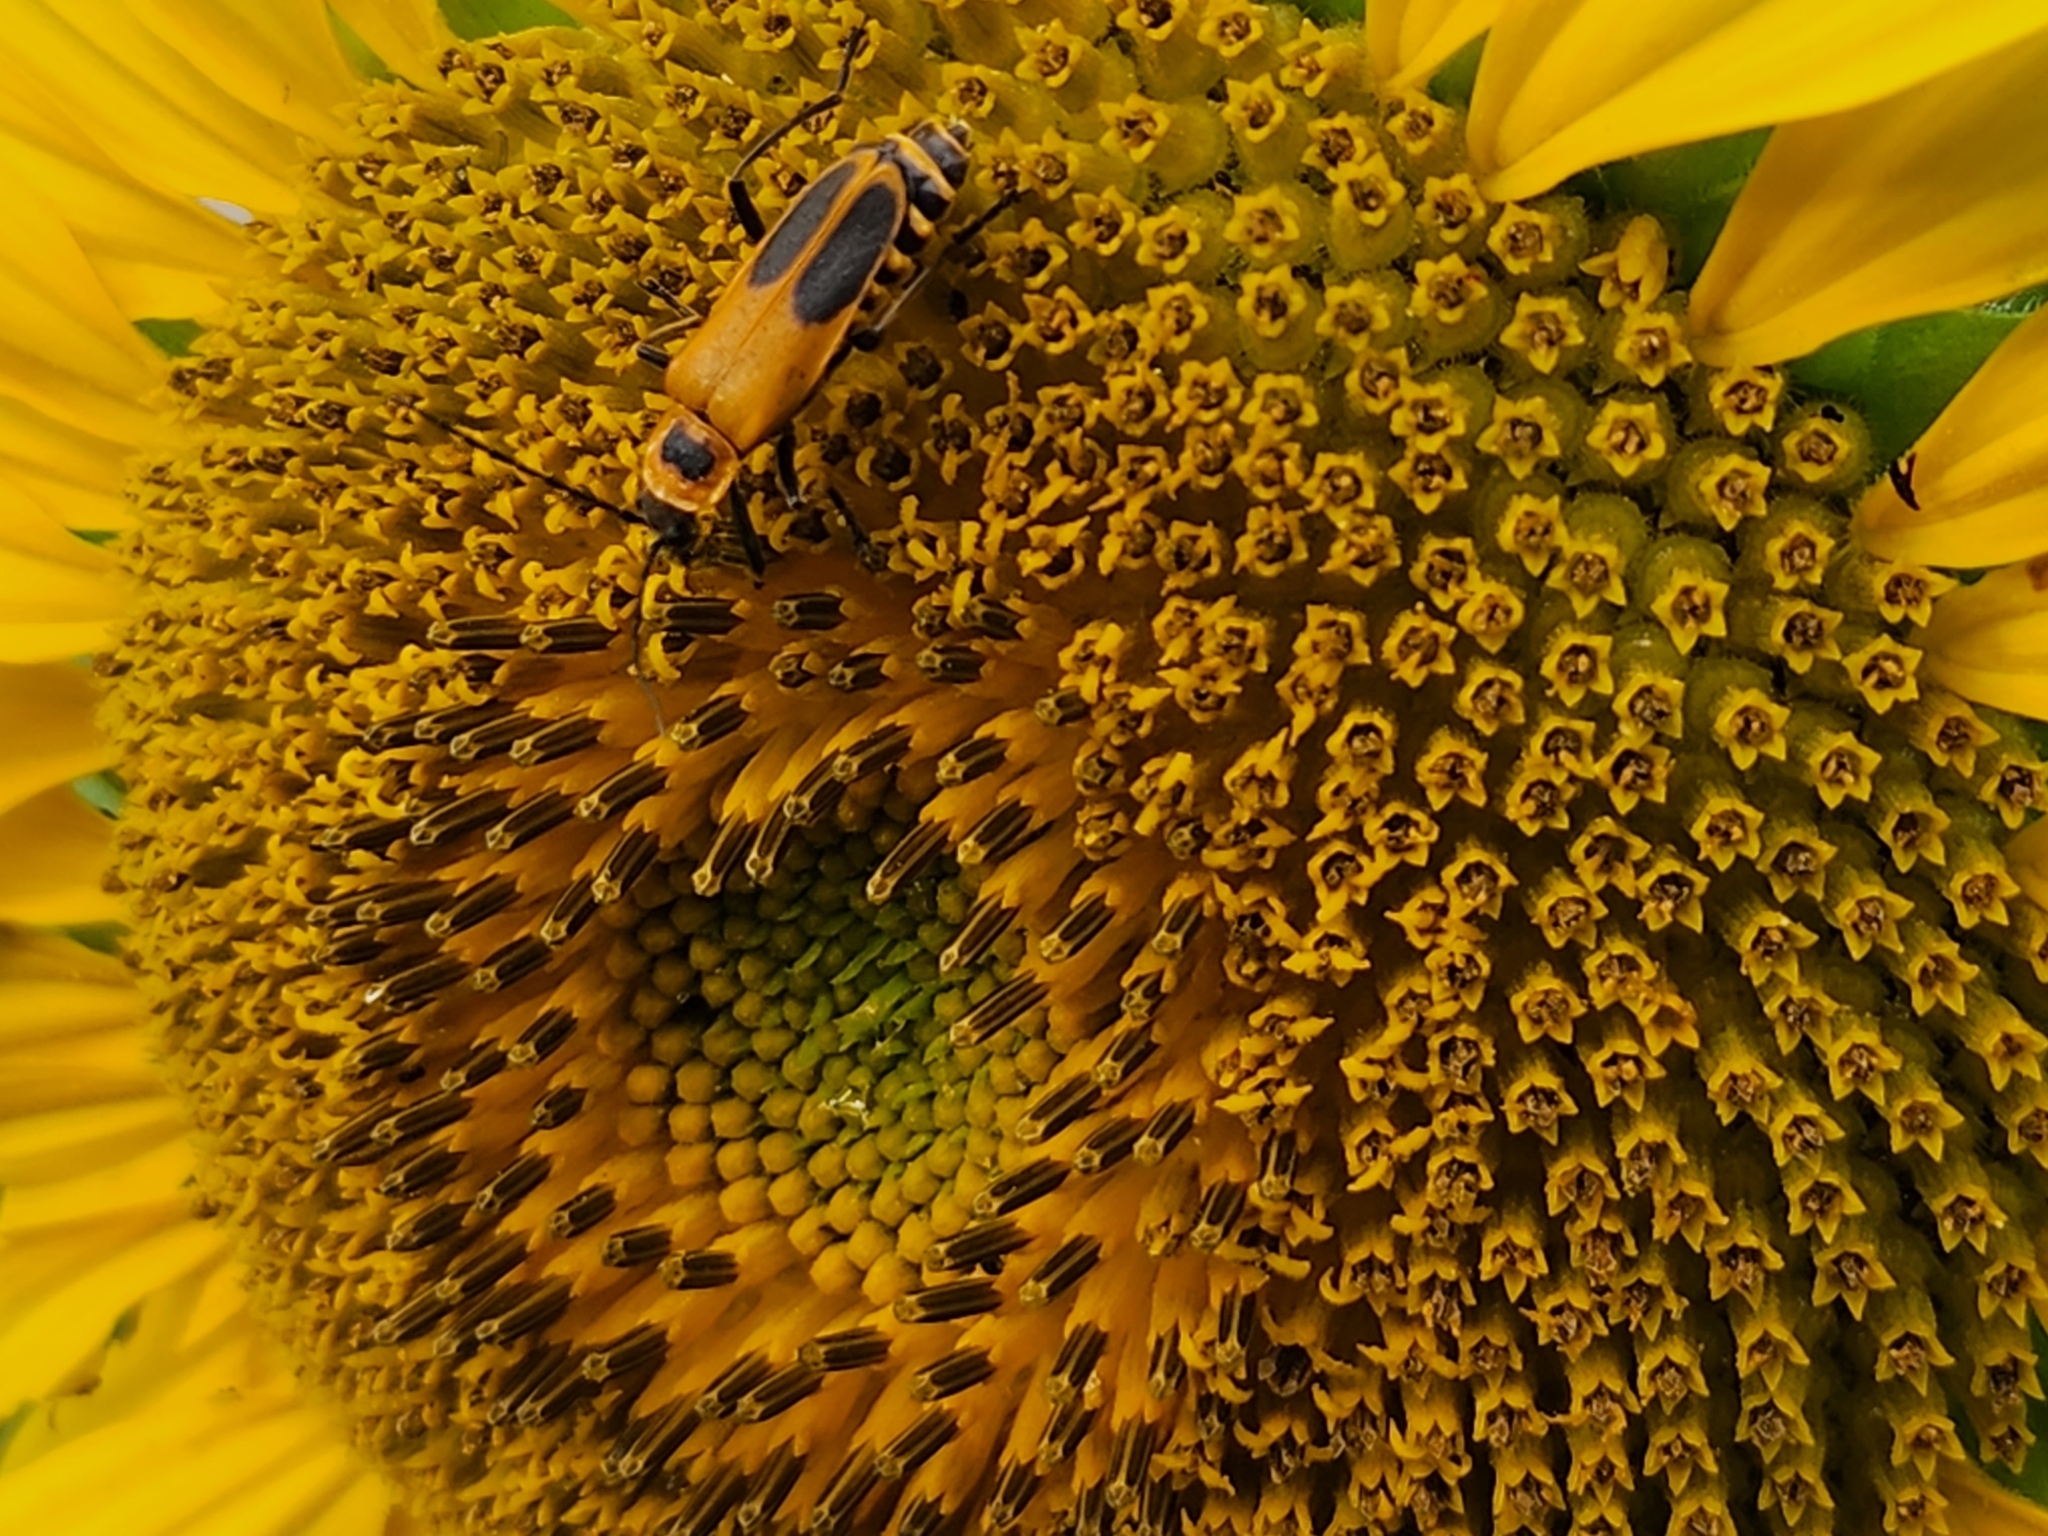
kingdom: Animalia
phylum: Arthropoda
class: Insecta
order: Coleoptera
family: Cantharidae
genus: Chauliognathus
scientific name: Chauliognathus pensylvanicus
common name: Goldenrod soldier beetle
